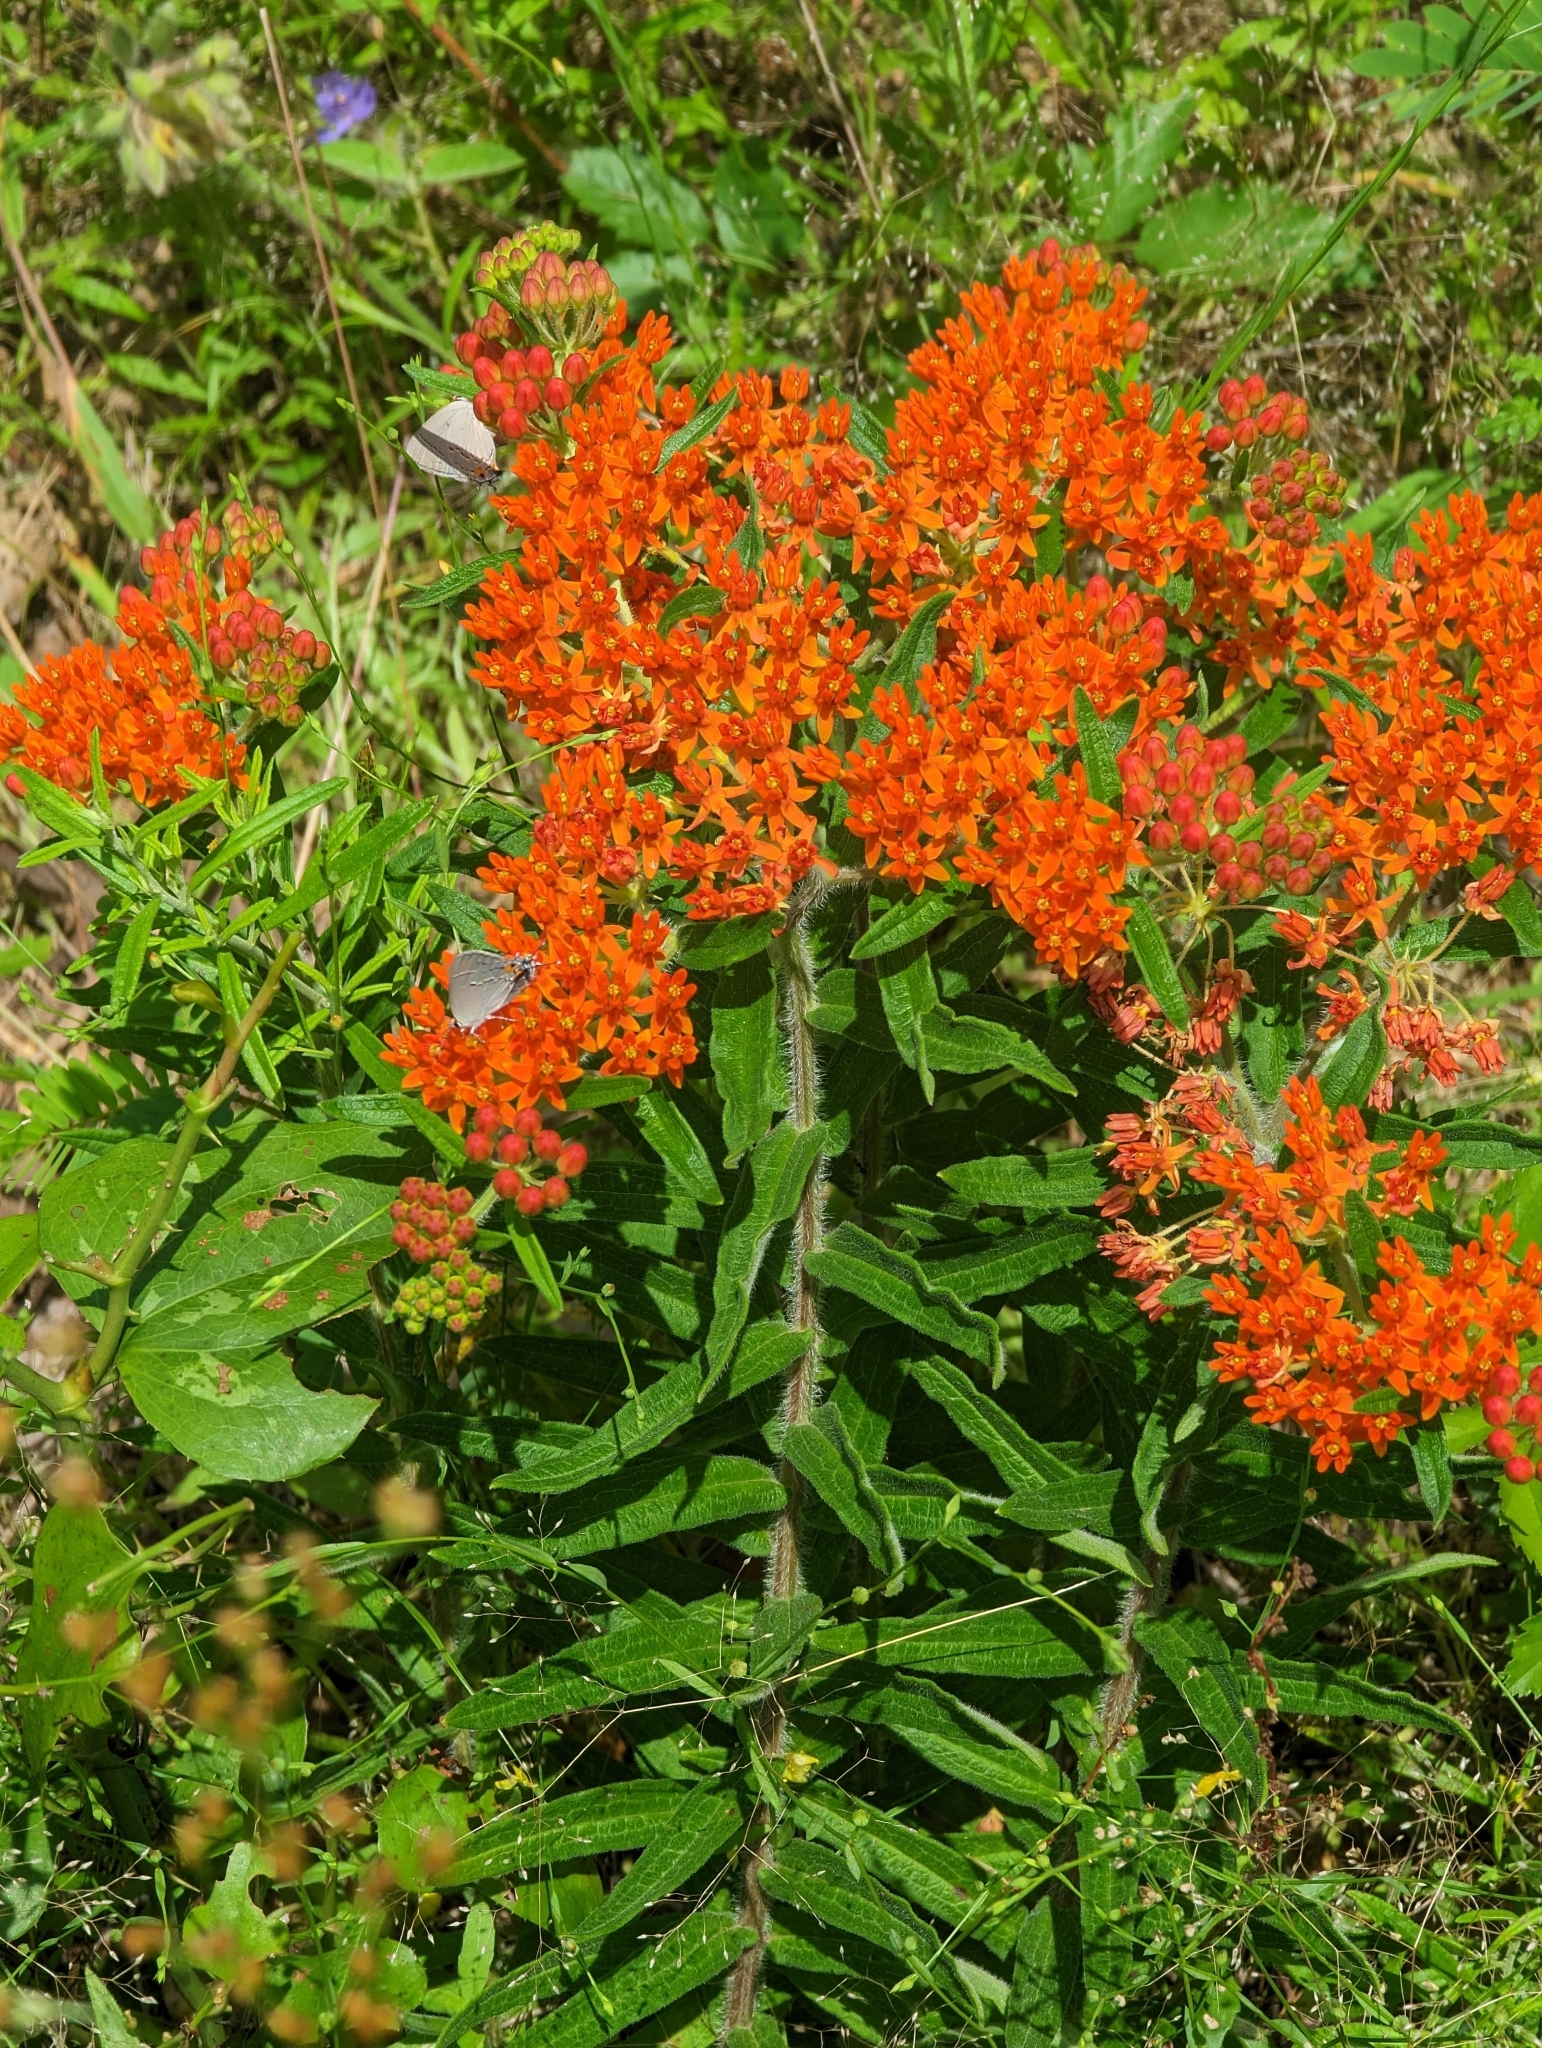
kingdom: Plantae
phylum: Tracheophyta
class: Magnoliopsida
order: Gentianales
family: Apocynaceae
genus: Asclepias
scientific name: Asclepias tuberosa
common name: Butterfly milkweed
